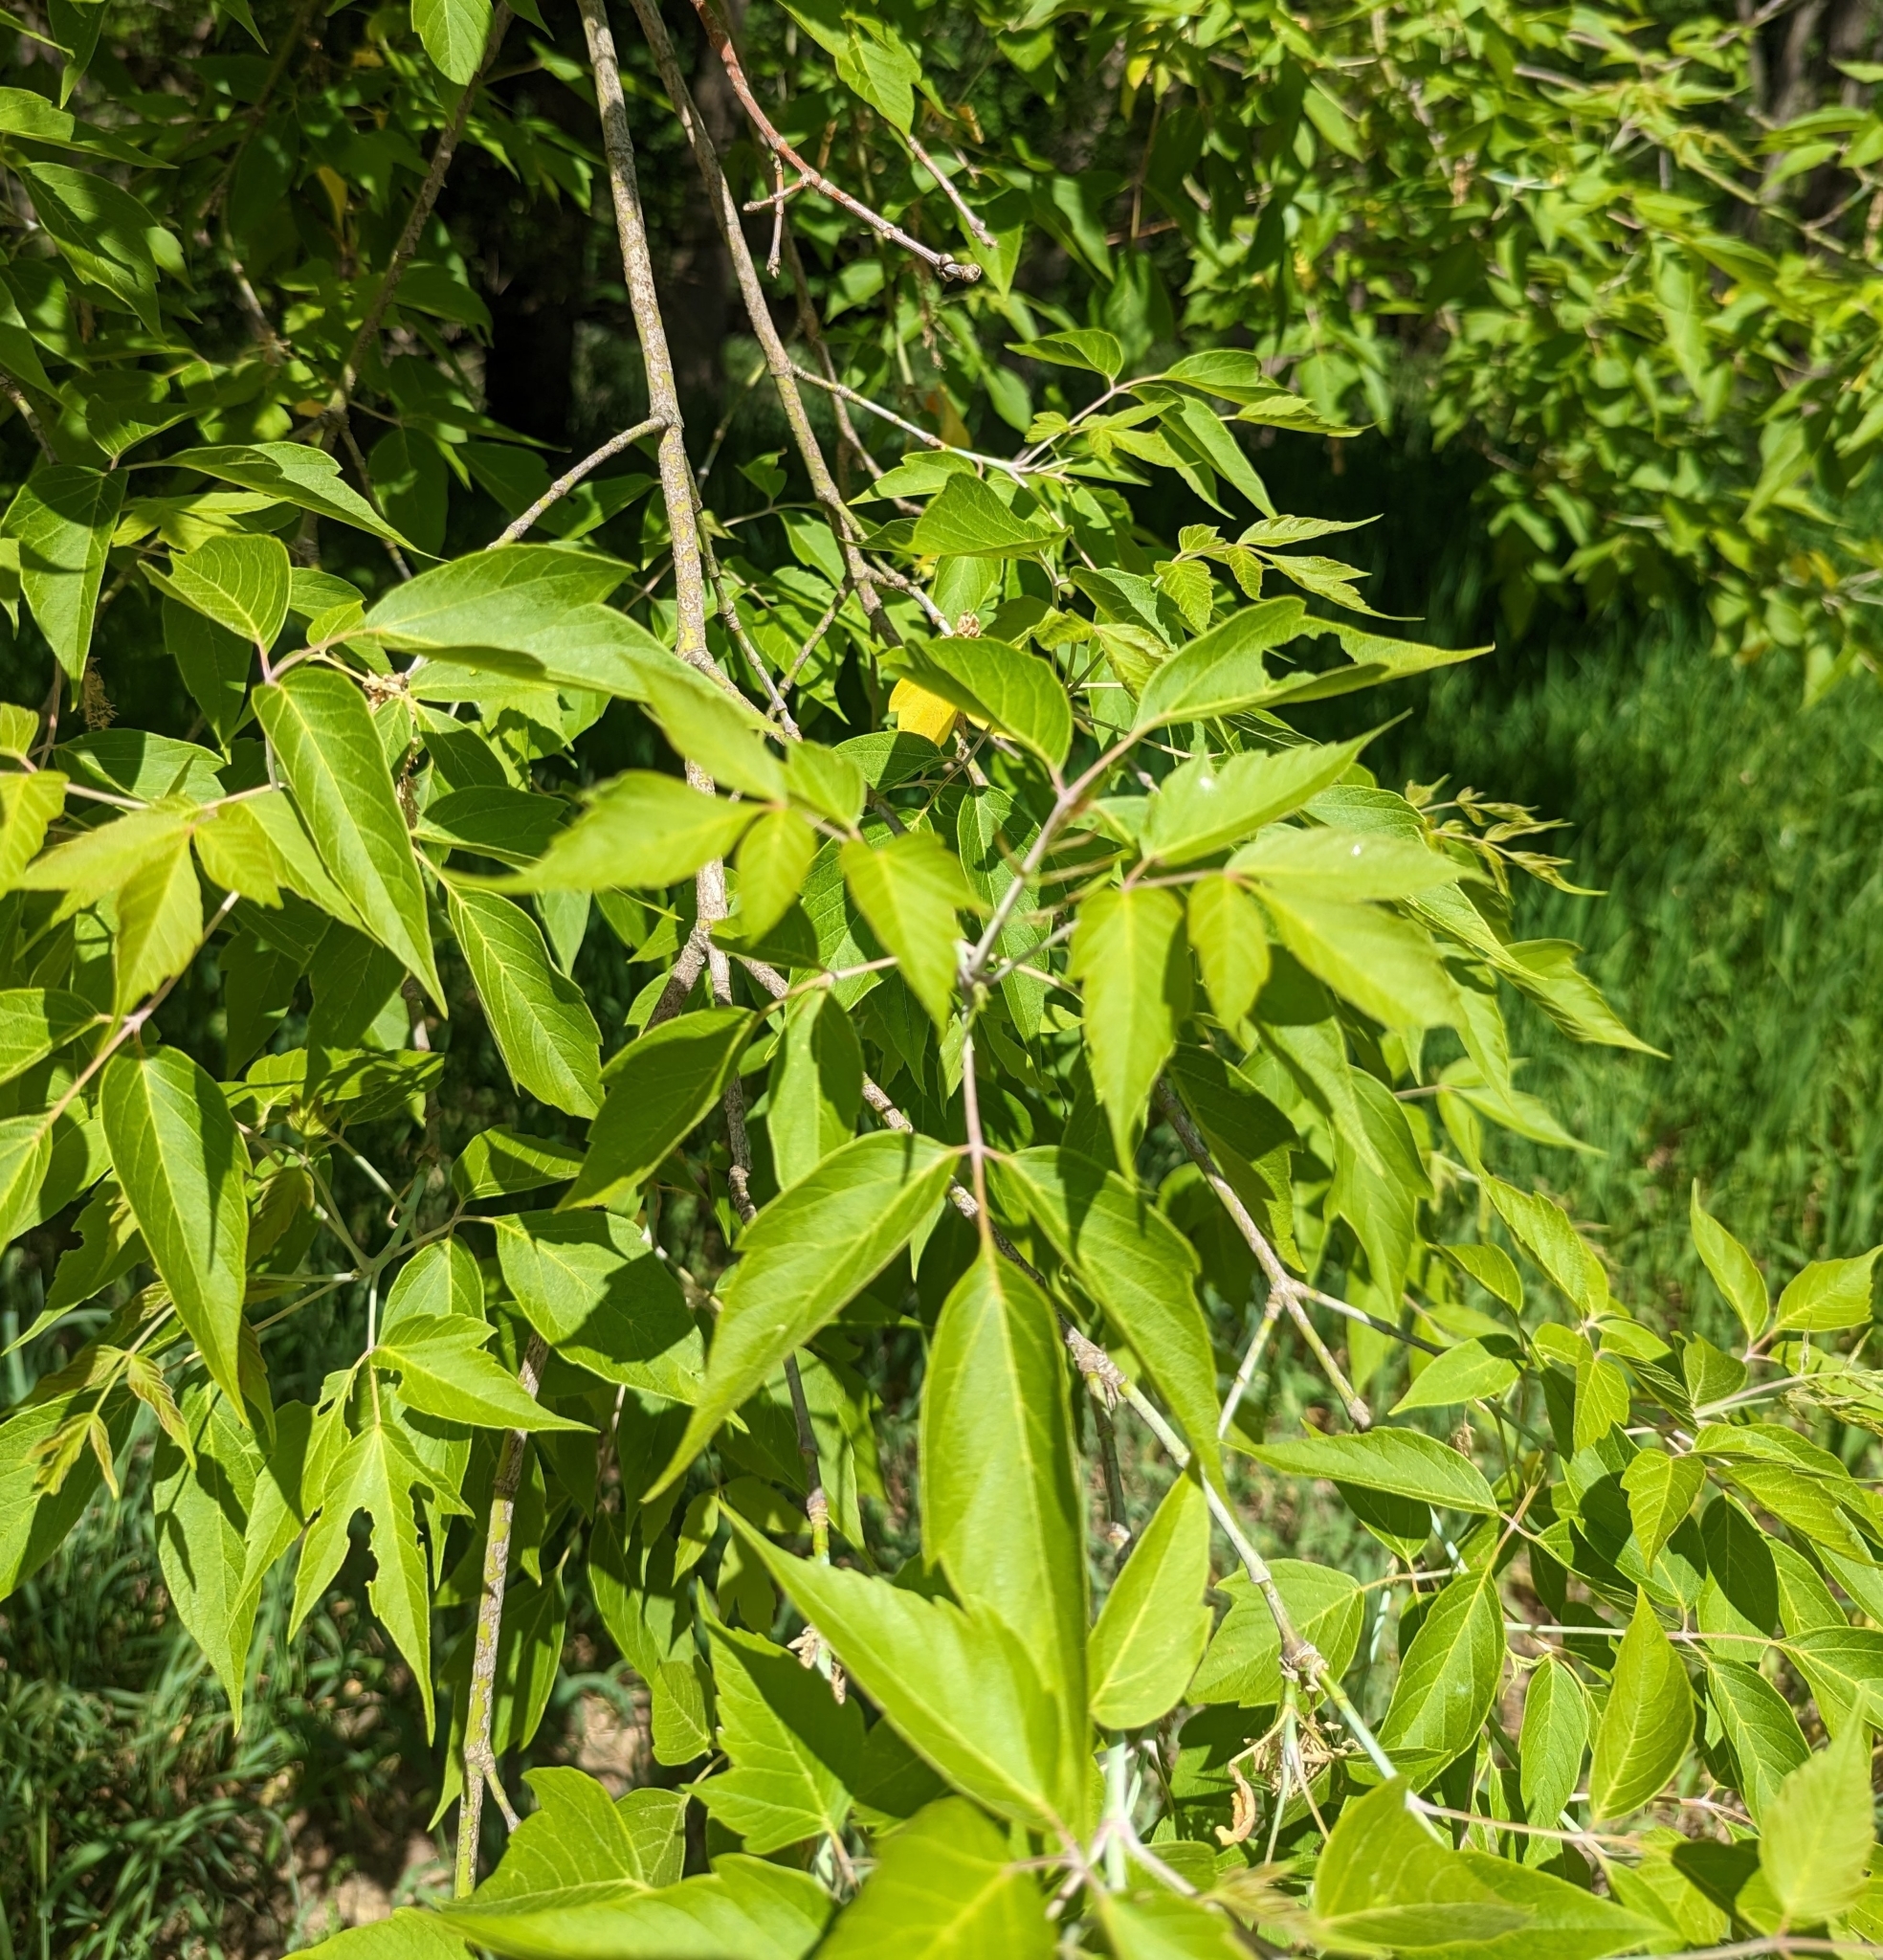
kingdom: Plantae
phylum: Tracheophyta
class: Magnoliopsida
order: Sapindales
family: Sapindaceae
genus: Acer
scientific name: Acer negundo
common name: Ashleaf maple
